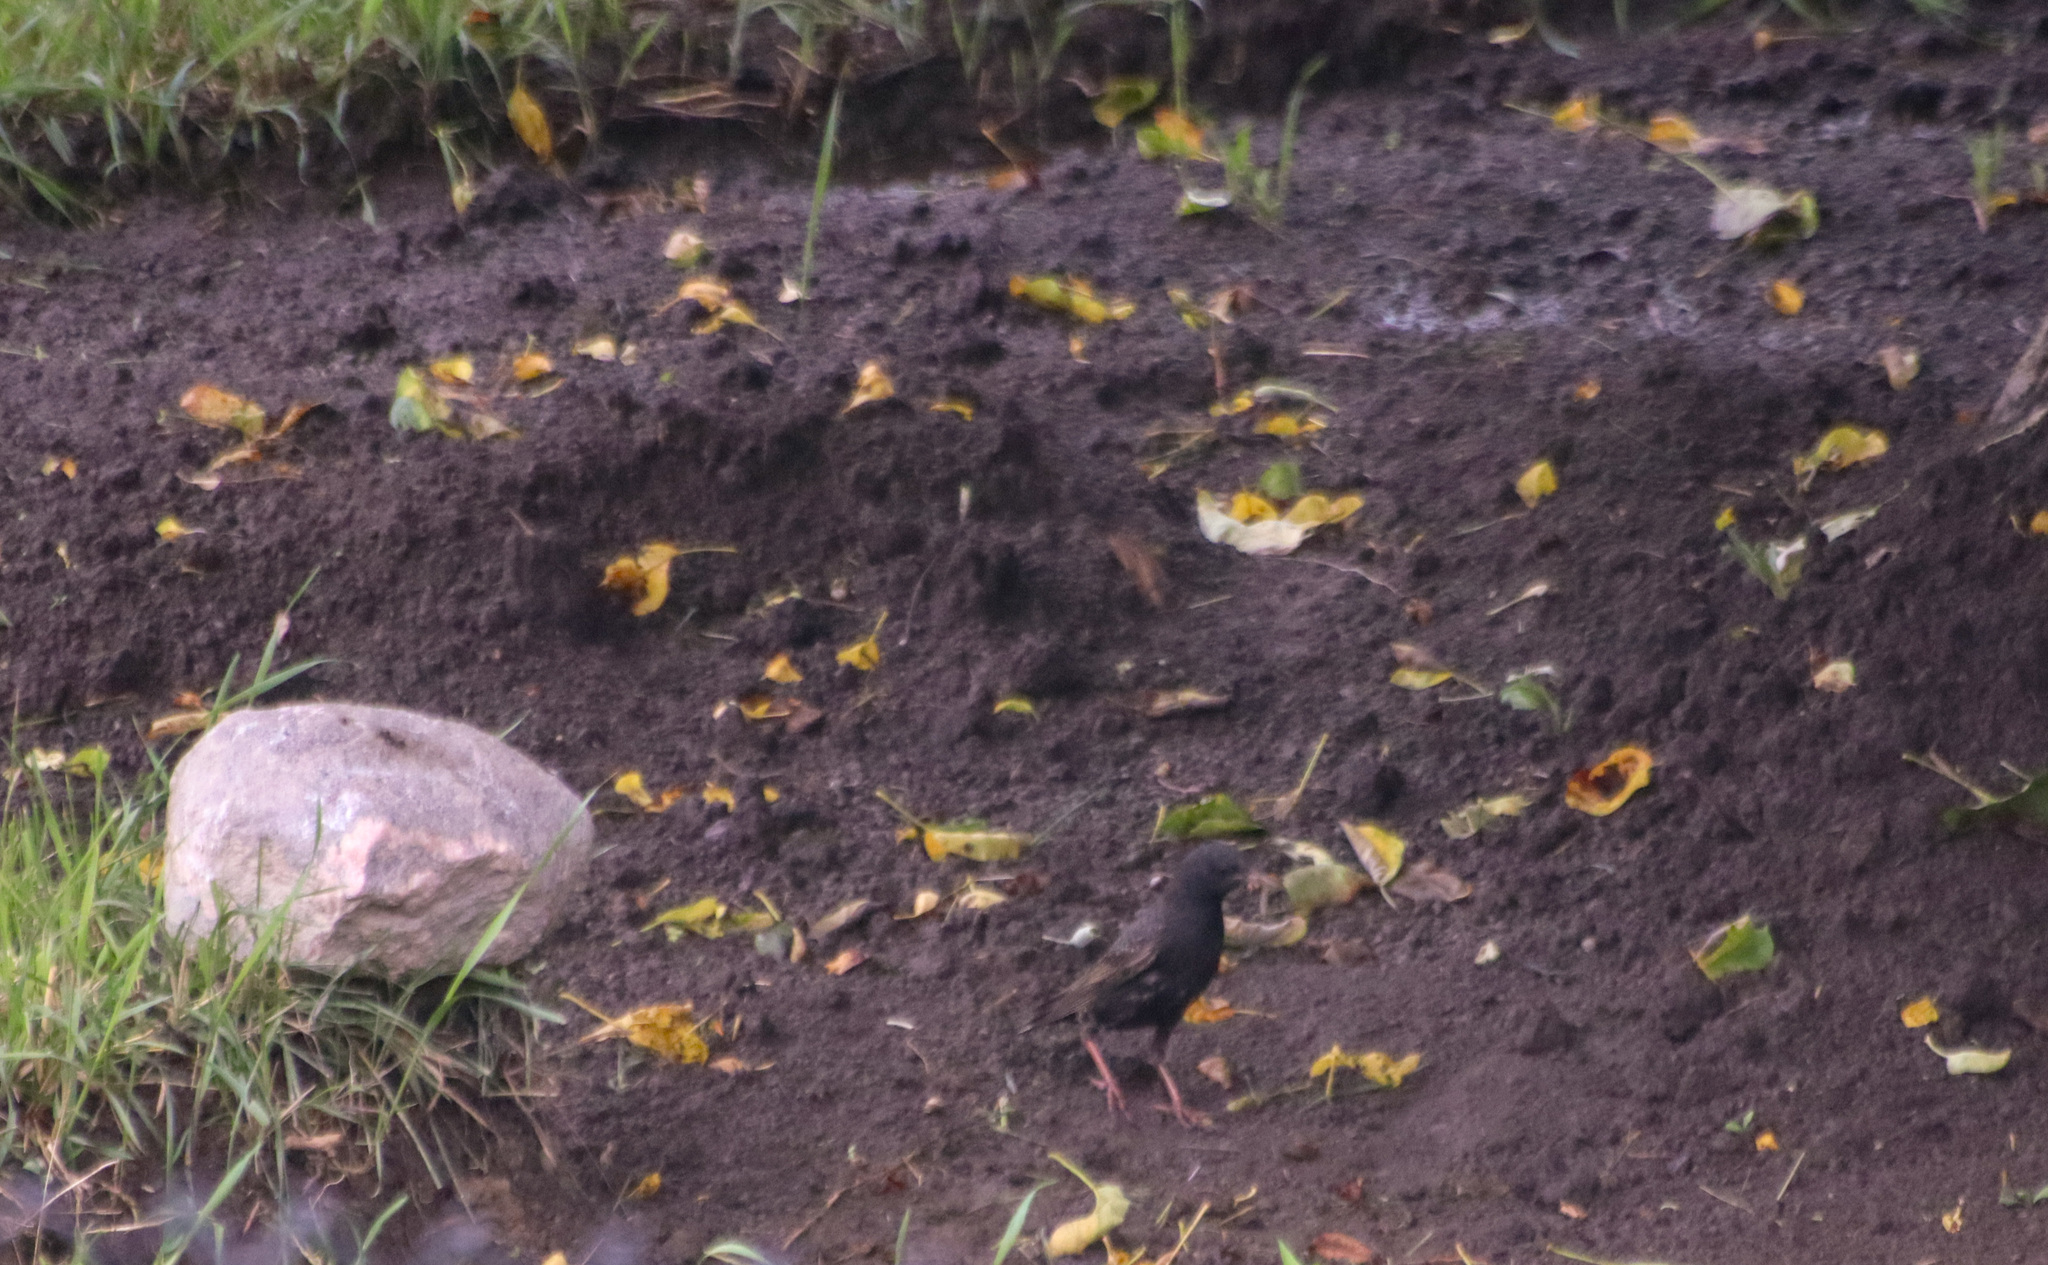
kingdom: Animalia
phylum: Chordata
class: Aves
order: Passeriformes
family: Sturnidae
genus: Sturnus
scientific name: Sturnus vulgaris
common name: Common starling
